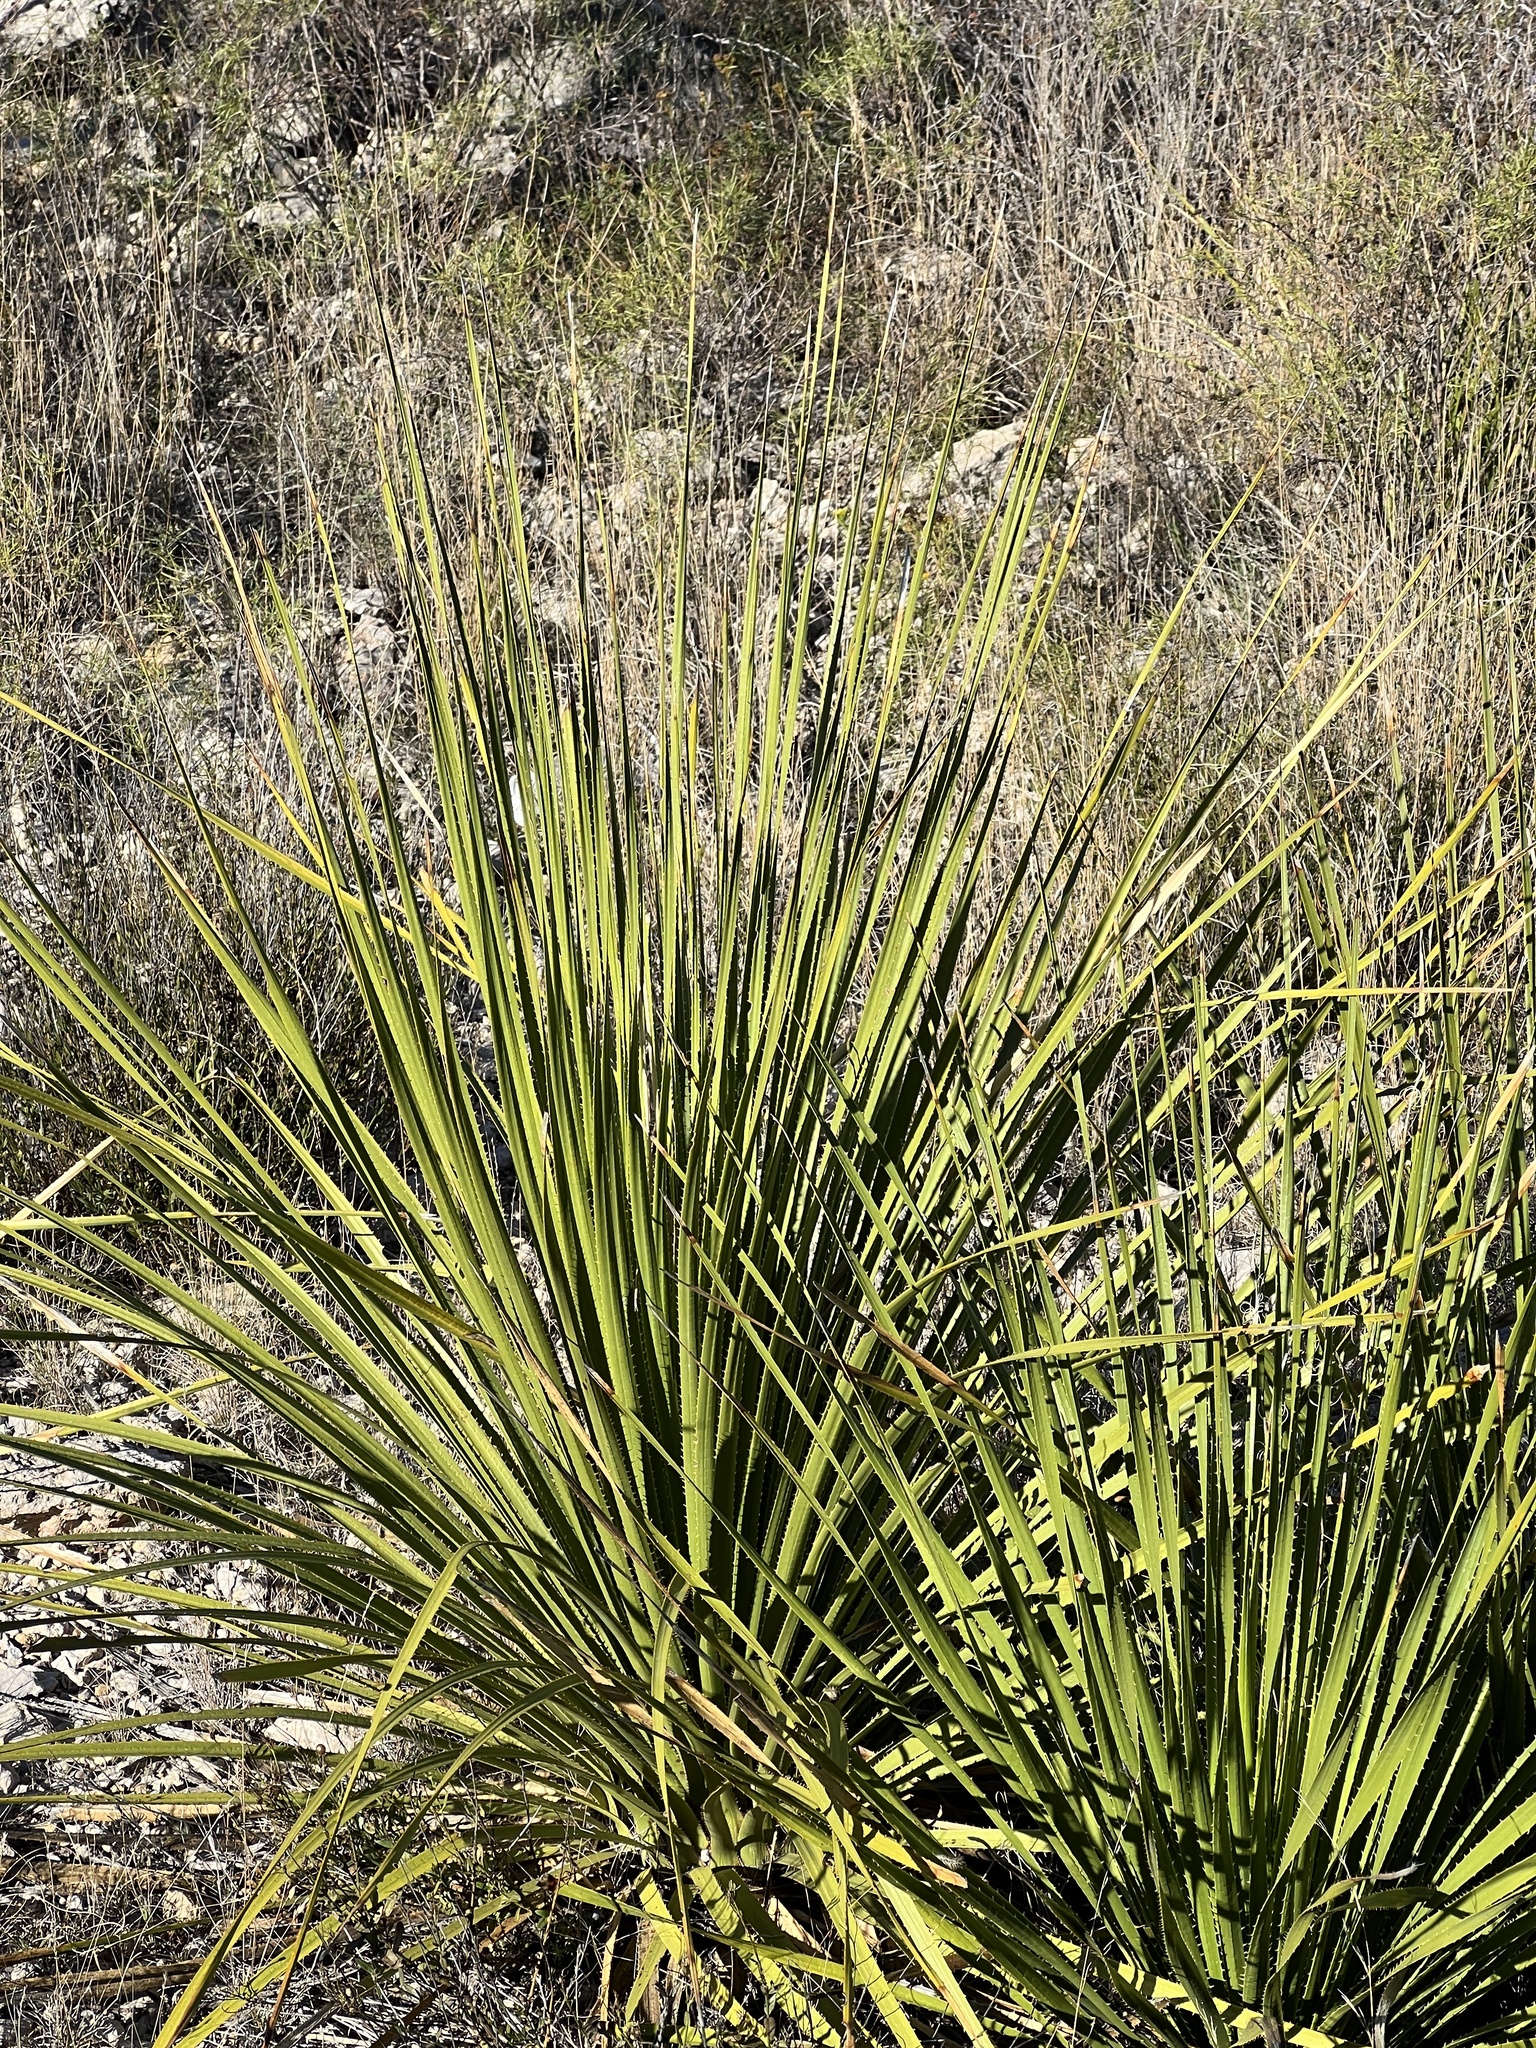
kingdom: Plantae
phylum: Tracheophyta
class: Liliopsida
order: Asparagales
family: Asparagaceae
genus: Dasylirion
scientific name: Dasylirion texanum
